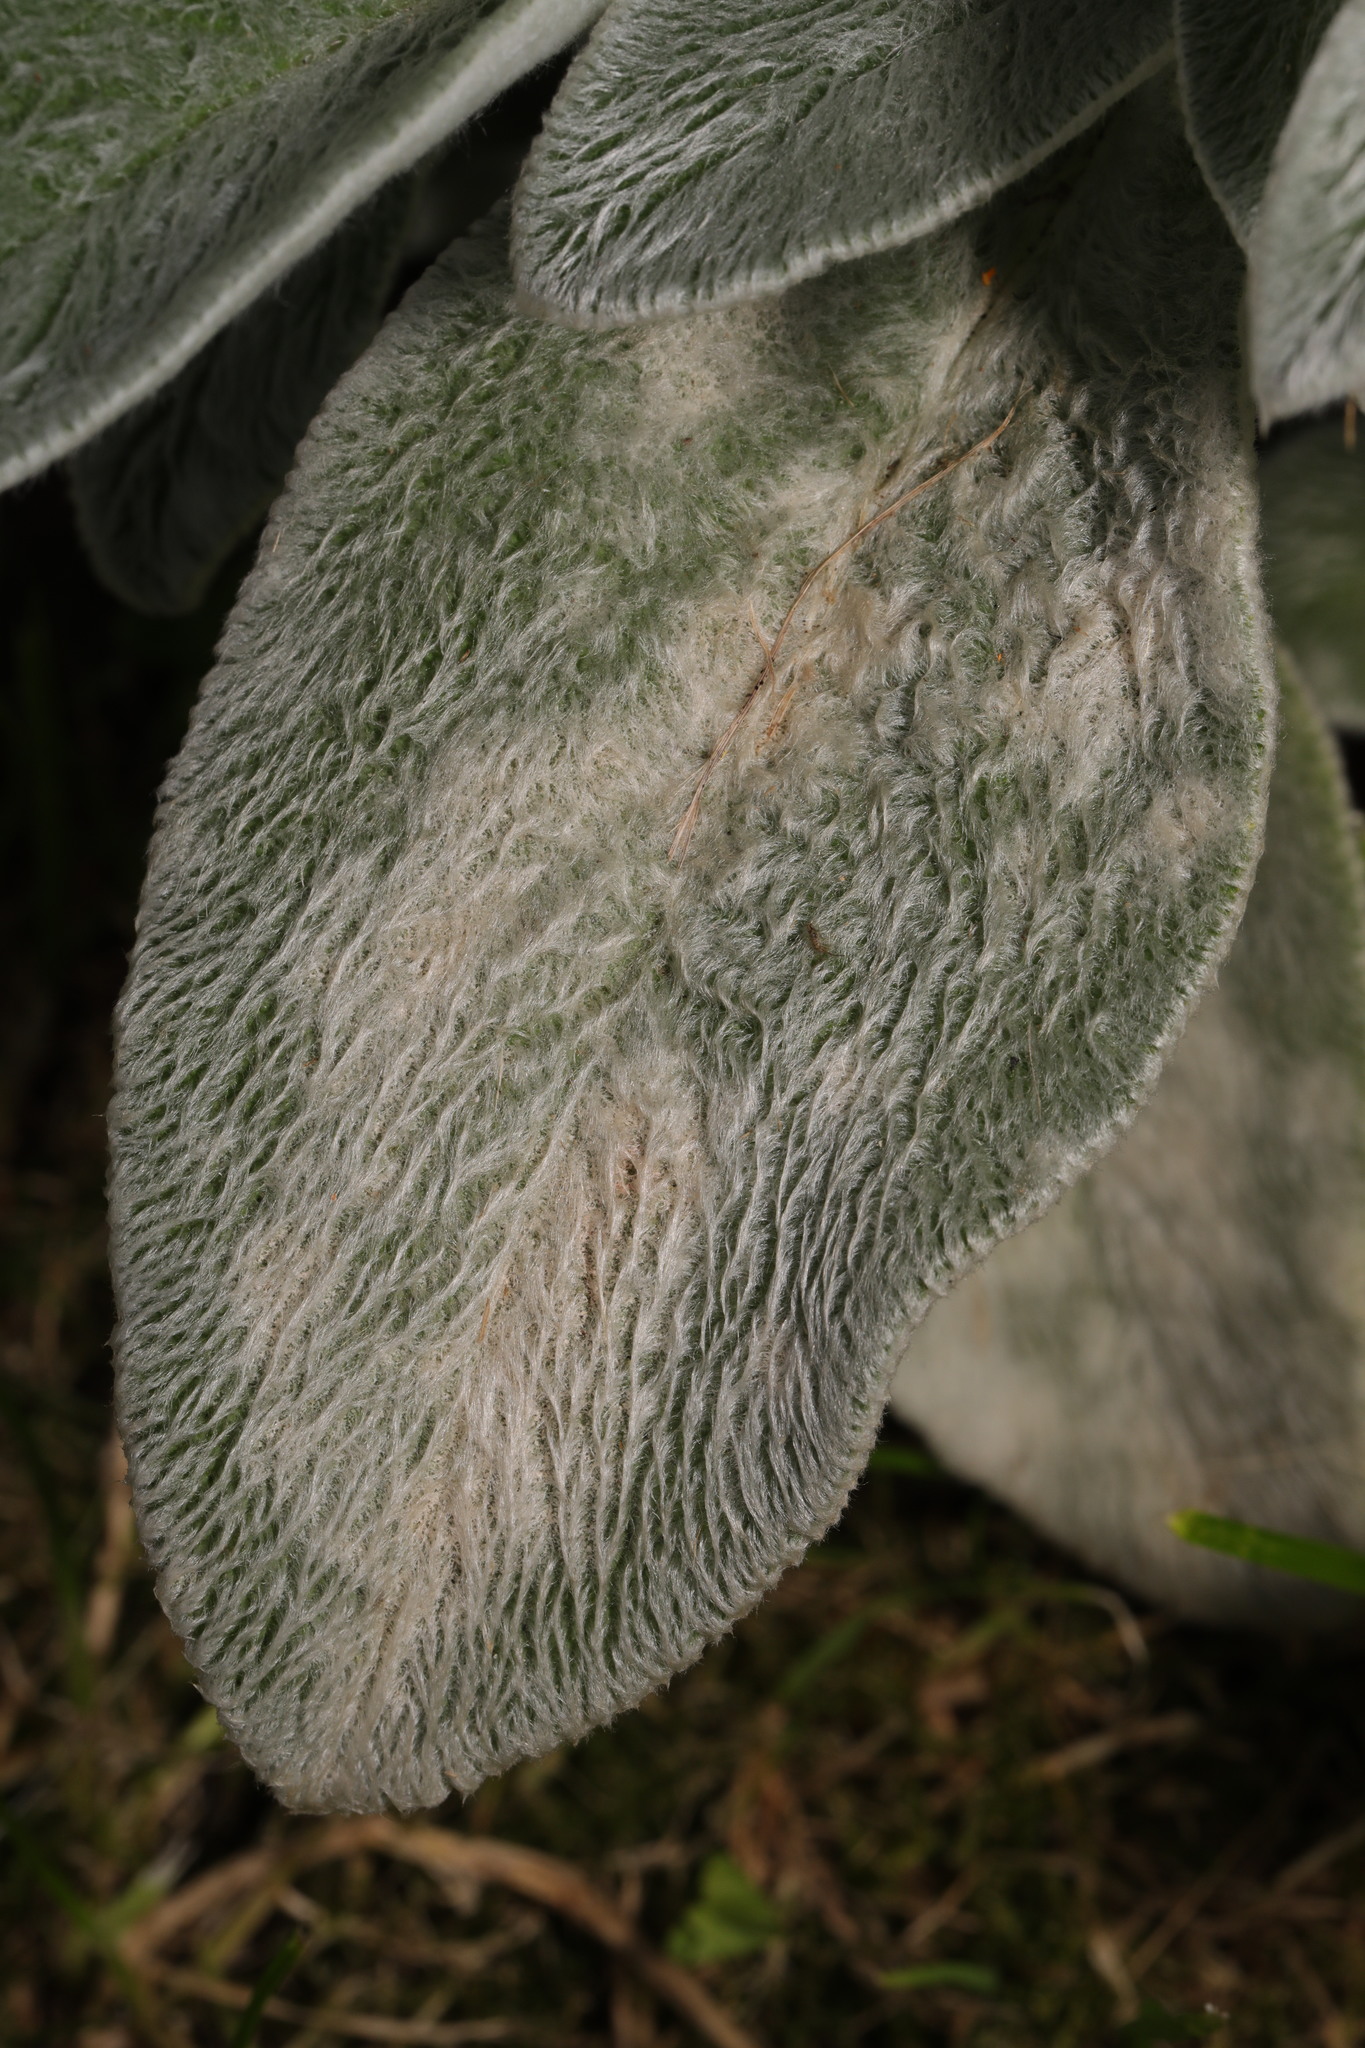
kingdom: Fungi
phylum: Ascomycota
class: Leotiomycetes
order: Helotiales
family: Erysiphaceae
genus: Neoerysiphe
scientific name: Neoerysiphe galeopsidis
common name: Mint mildew
